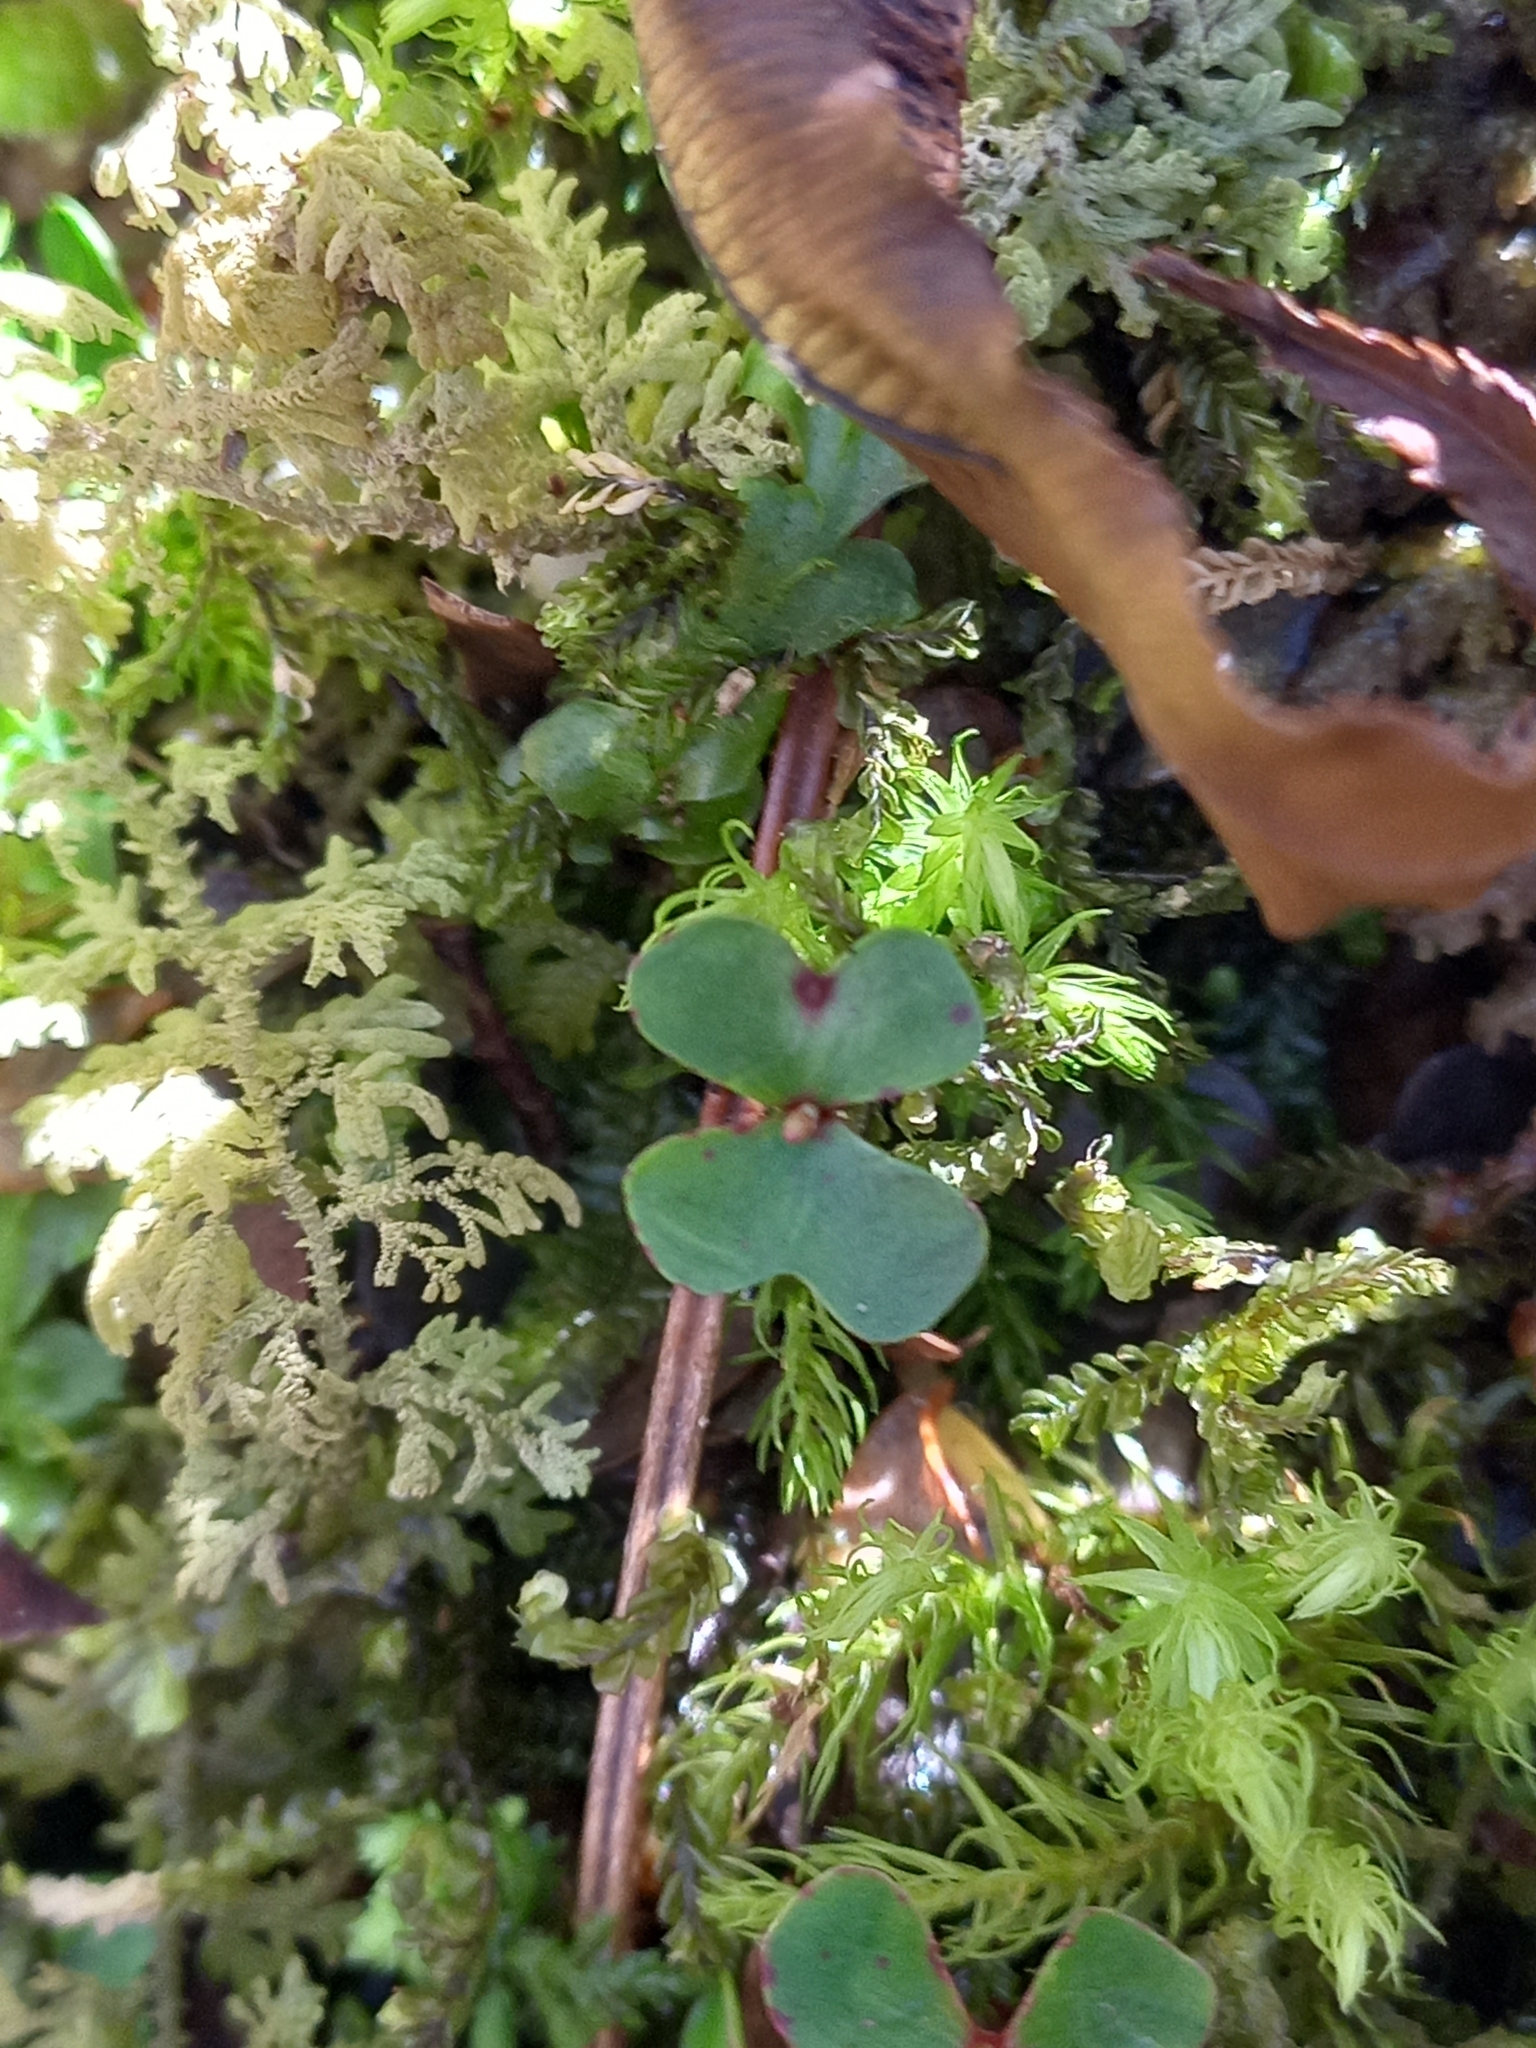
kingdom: Plantae
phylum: Tracheophyta
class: Magnoliopsida
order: Fagales
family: Nothofagaceae
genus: Nothofagus
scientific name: Nothofagus cliffortioides
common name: Mountain beech
